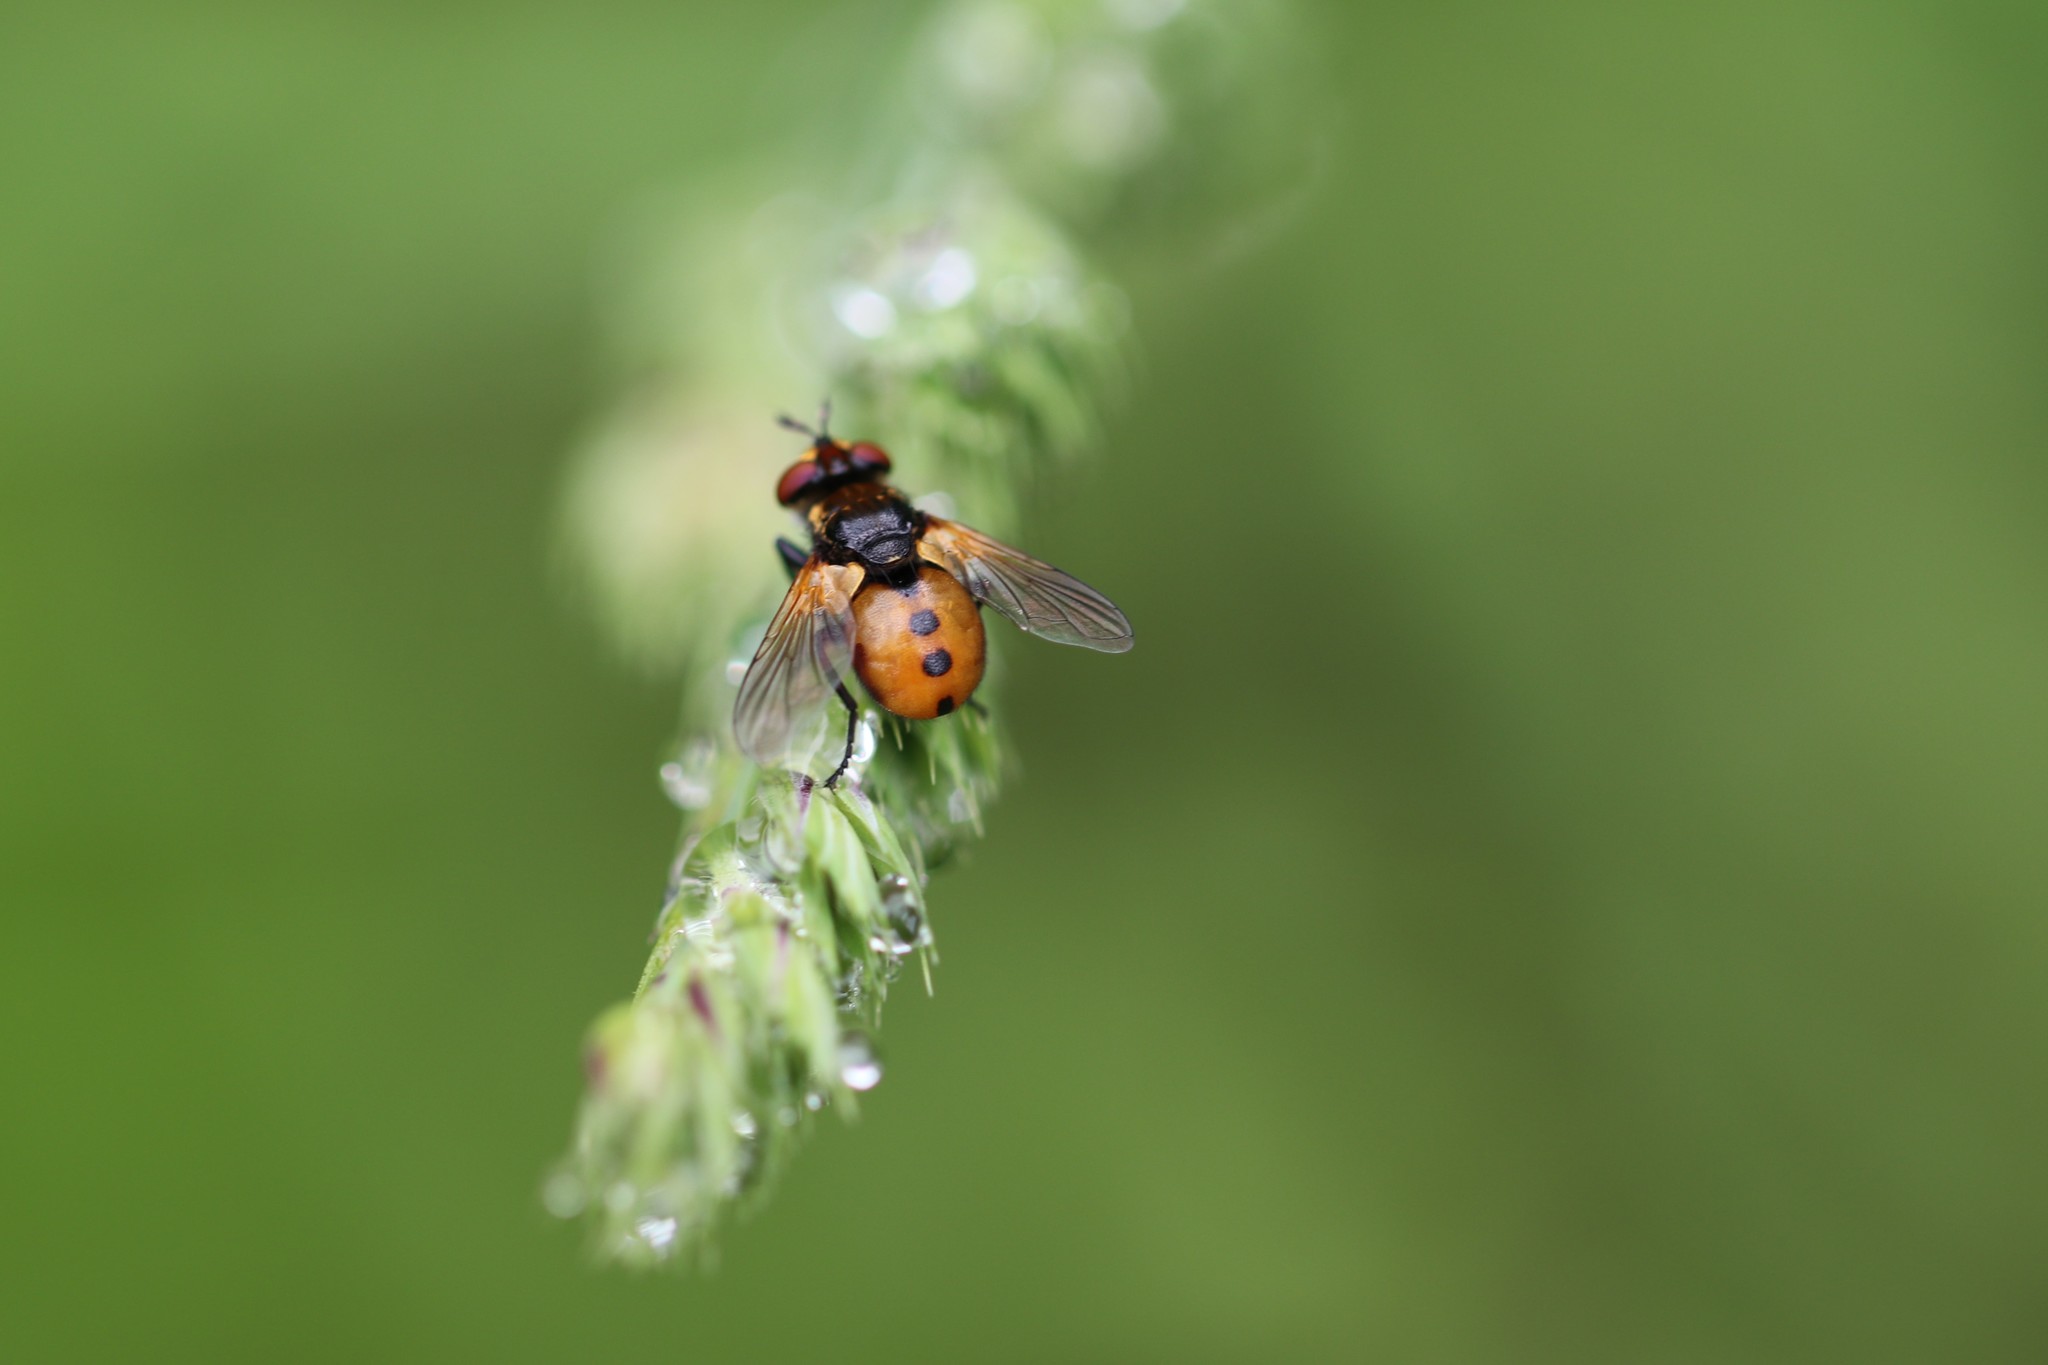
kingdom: Animalia
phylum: Arthropoda
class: Insecta
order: Diptera
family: Tachinidae
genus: Gymnosoma
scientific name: Gymnosoma
